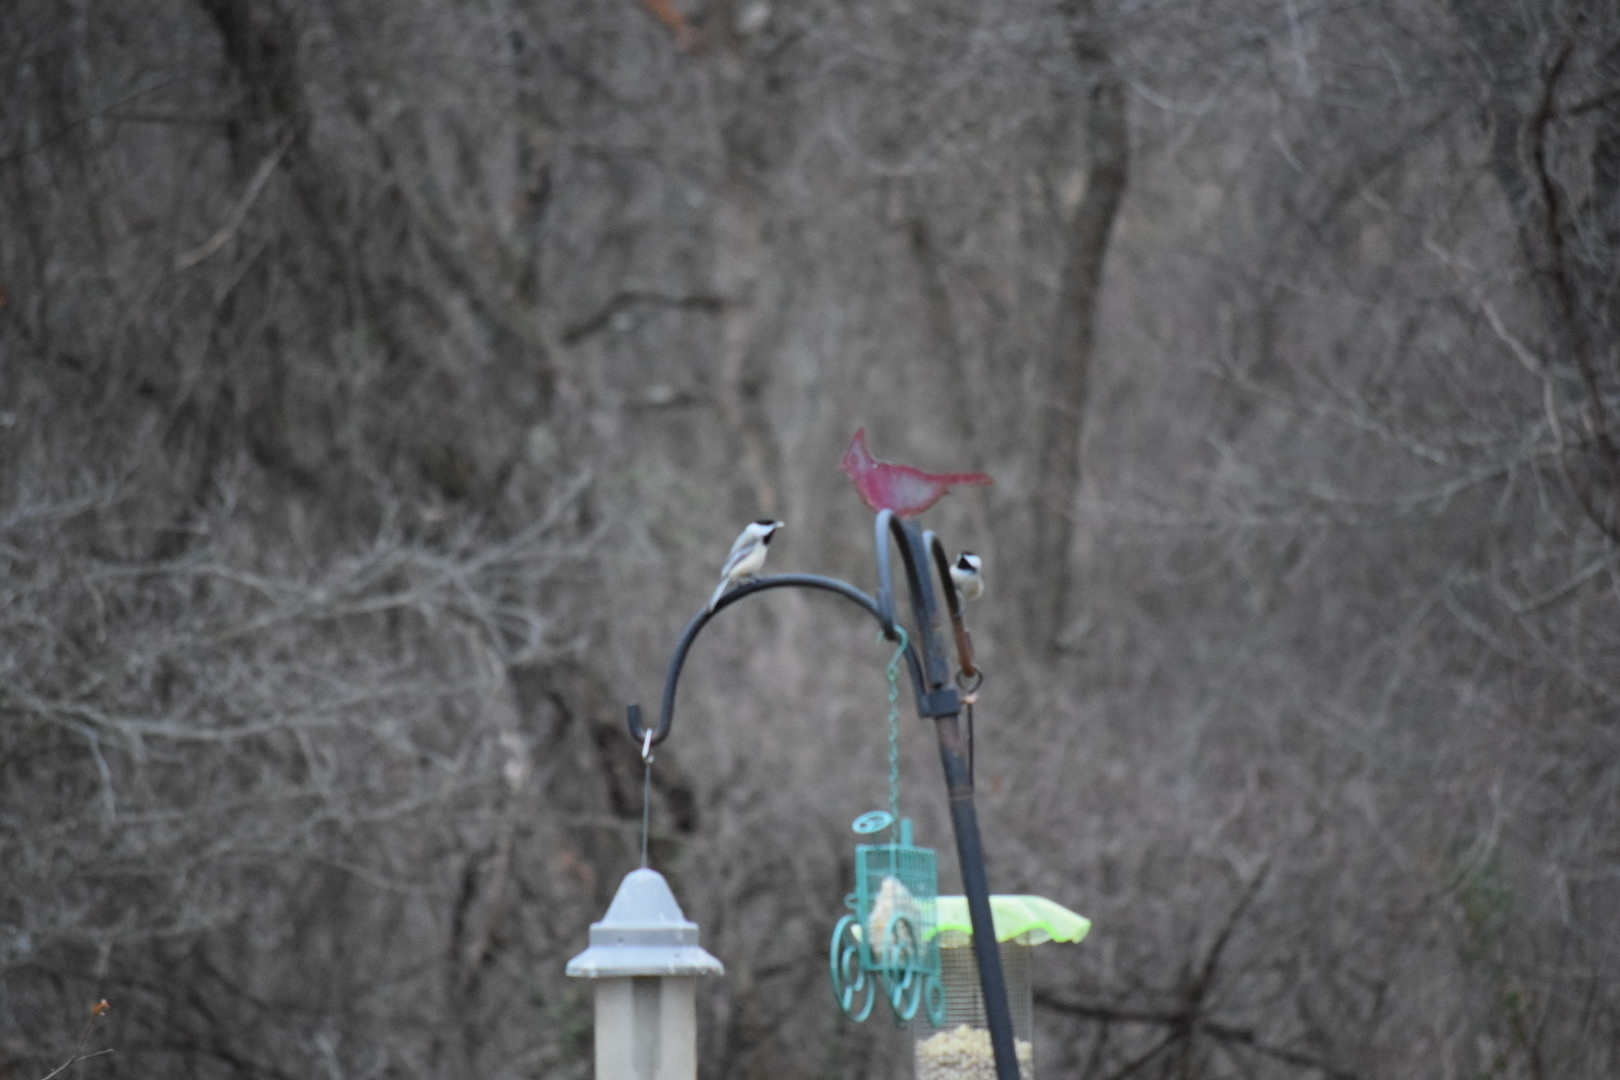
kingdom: Animalia
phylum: Chordata
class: Aves
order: Passeriformes
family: Paridae
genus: Poecile
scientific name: Poecile atricapillus
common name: Black-capped chickadee
